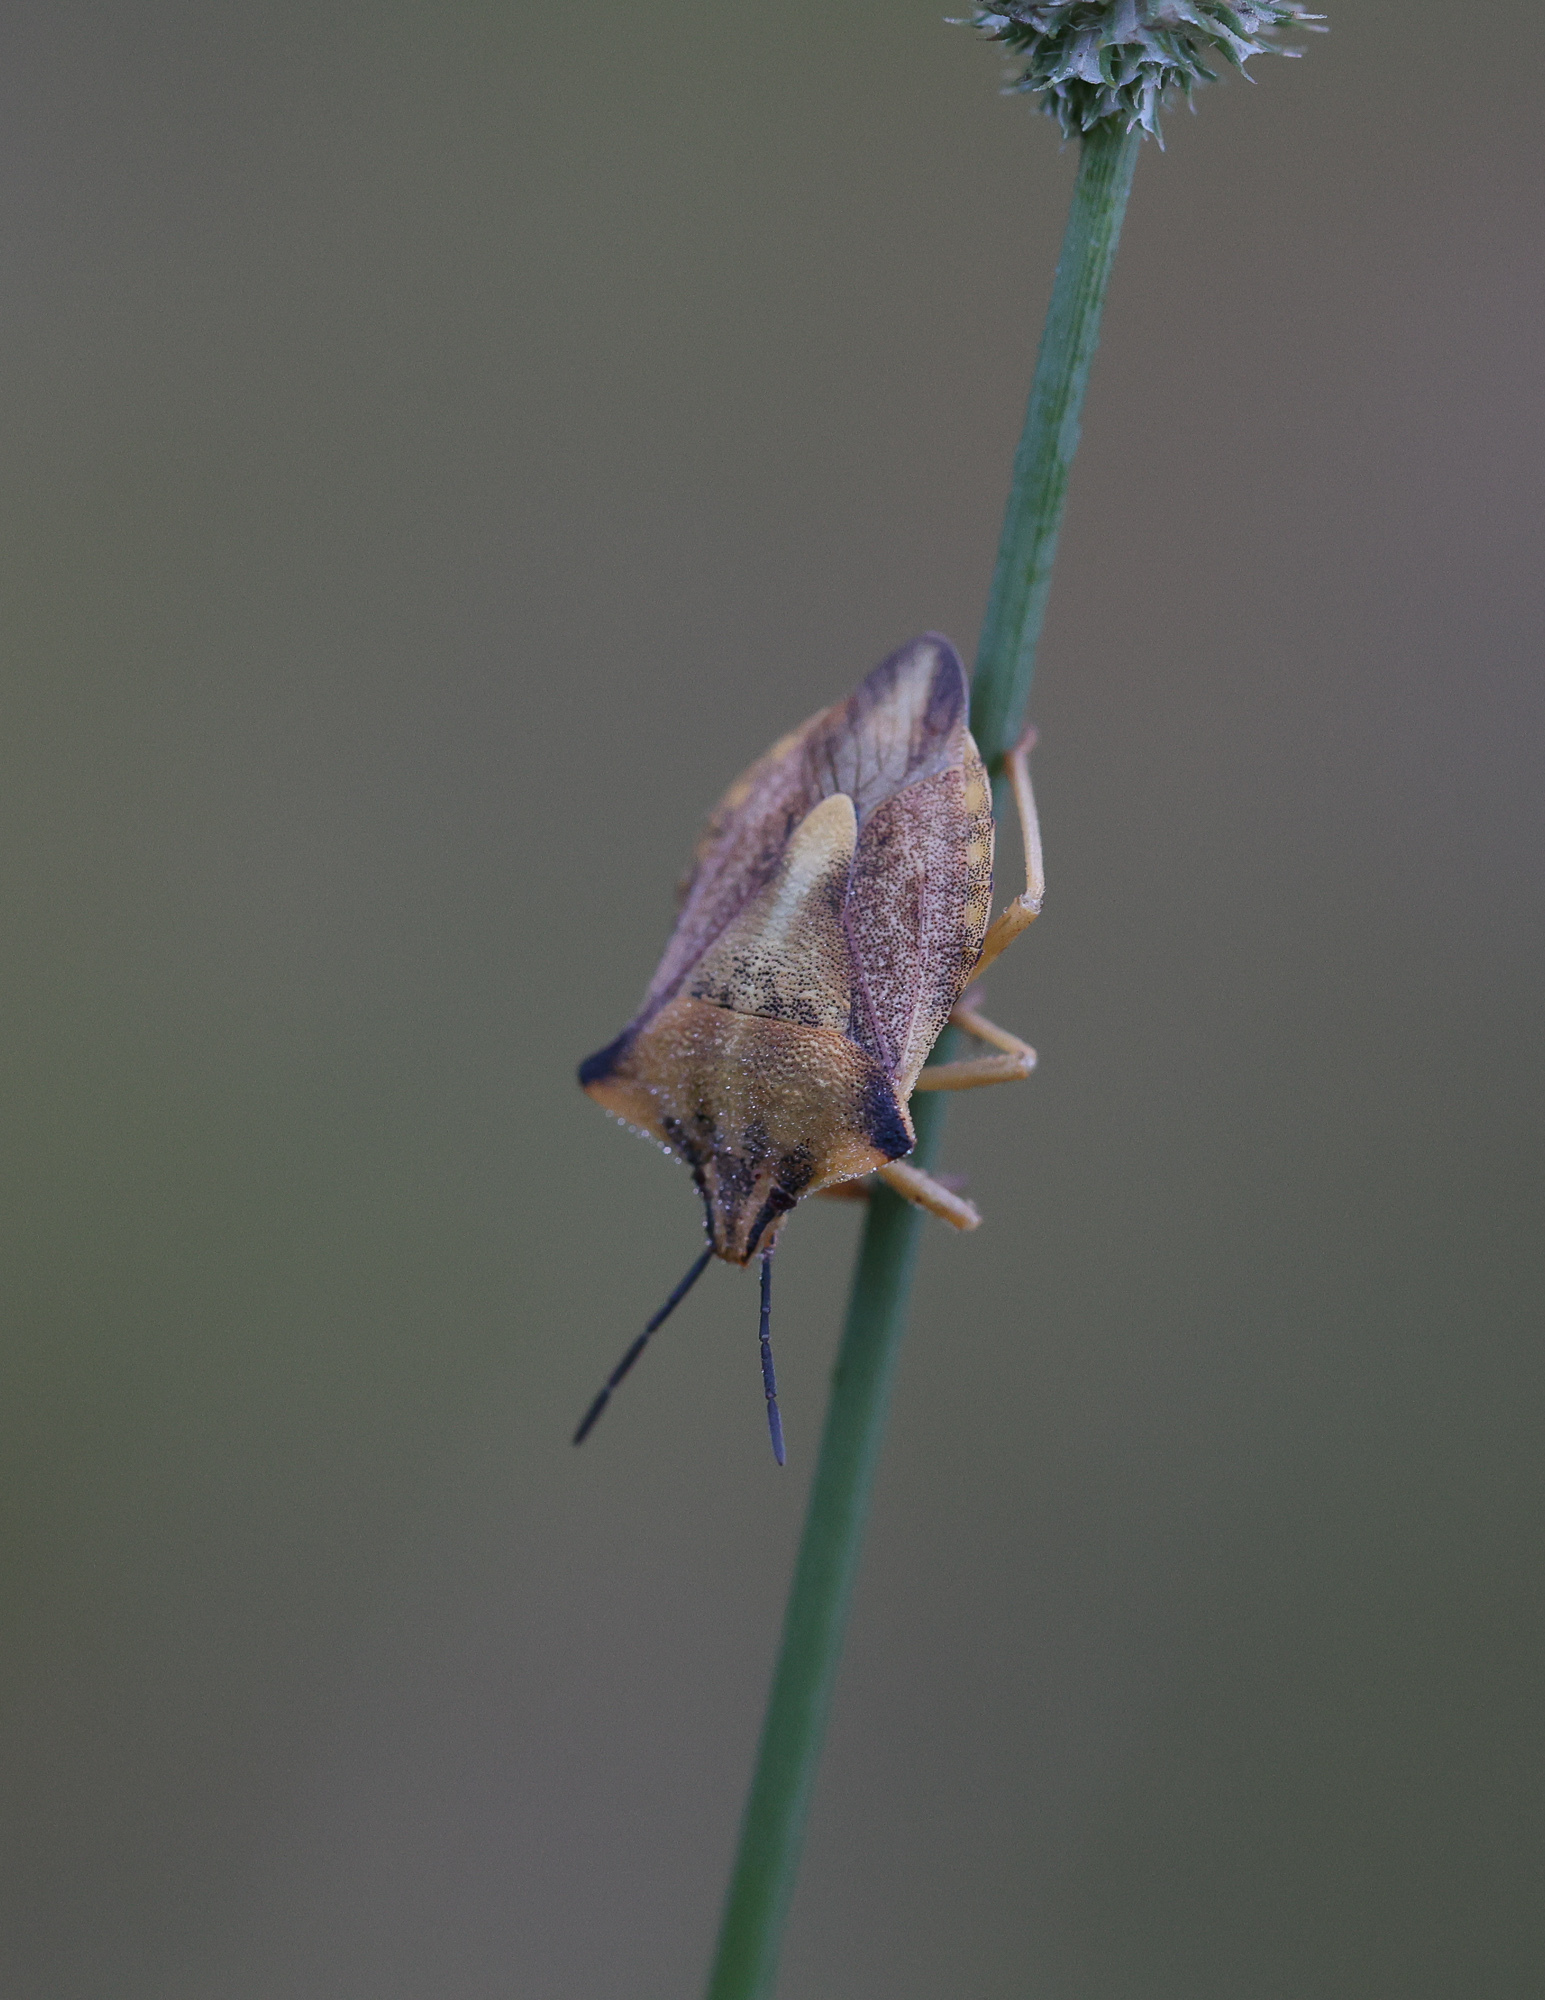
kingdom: Animalia
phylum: Arthropoda
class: Insecta
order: Hemiptera
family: Pentatomidae
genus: Carpocoris
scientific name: Carpocoris fuscispinus
